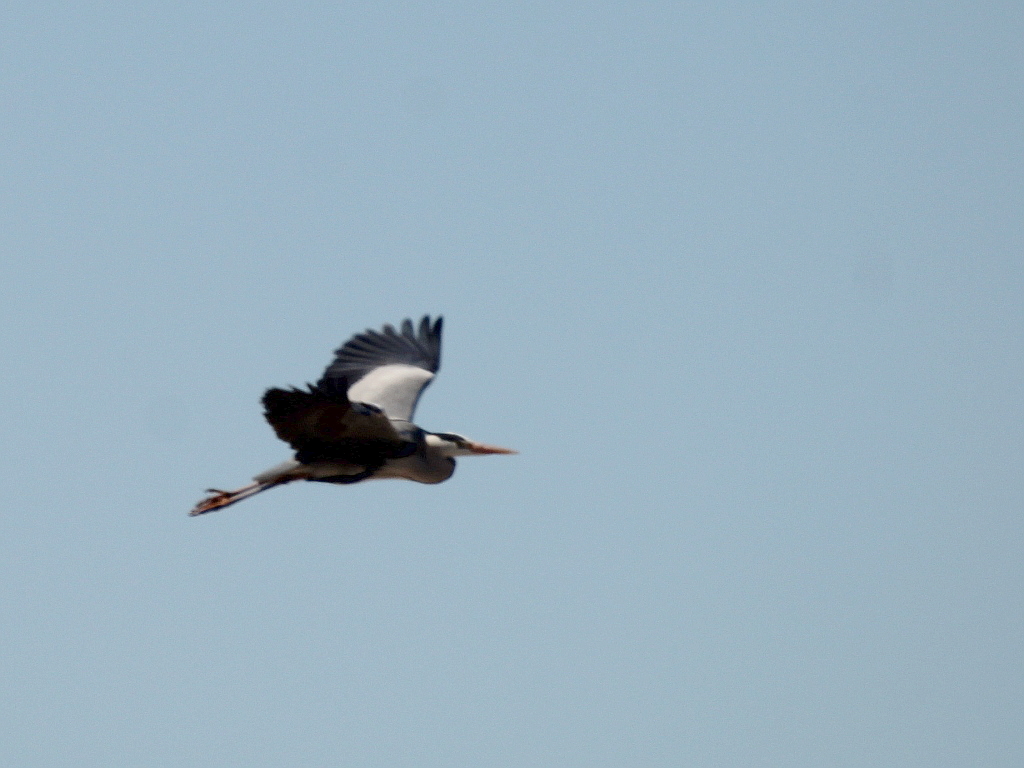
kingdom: Animalia
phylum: Chordata
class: Aves
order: Pelecaniformes
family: Ardeidae
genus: Ardea
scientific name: Ardea cinerea
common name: Grey heron
